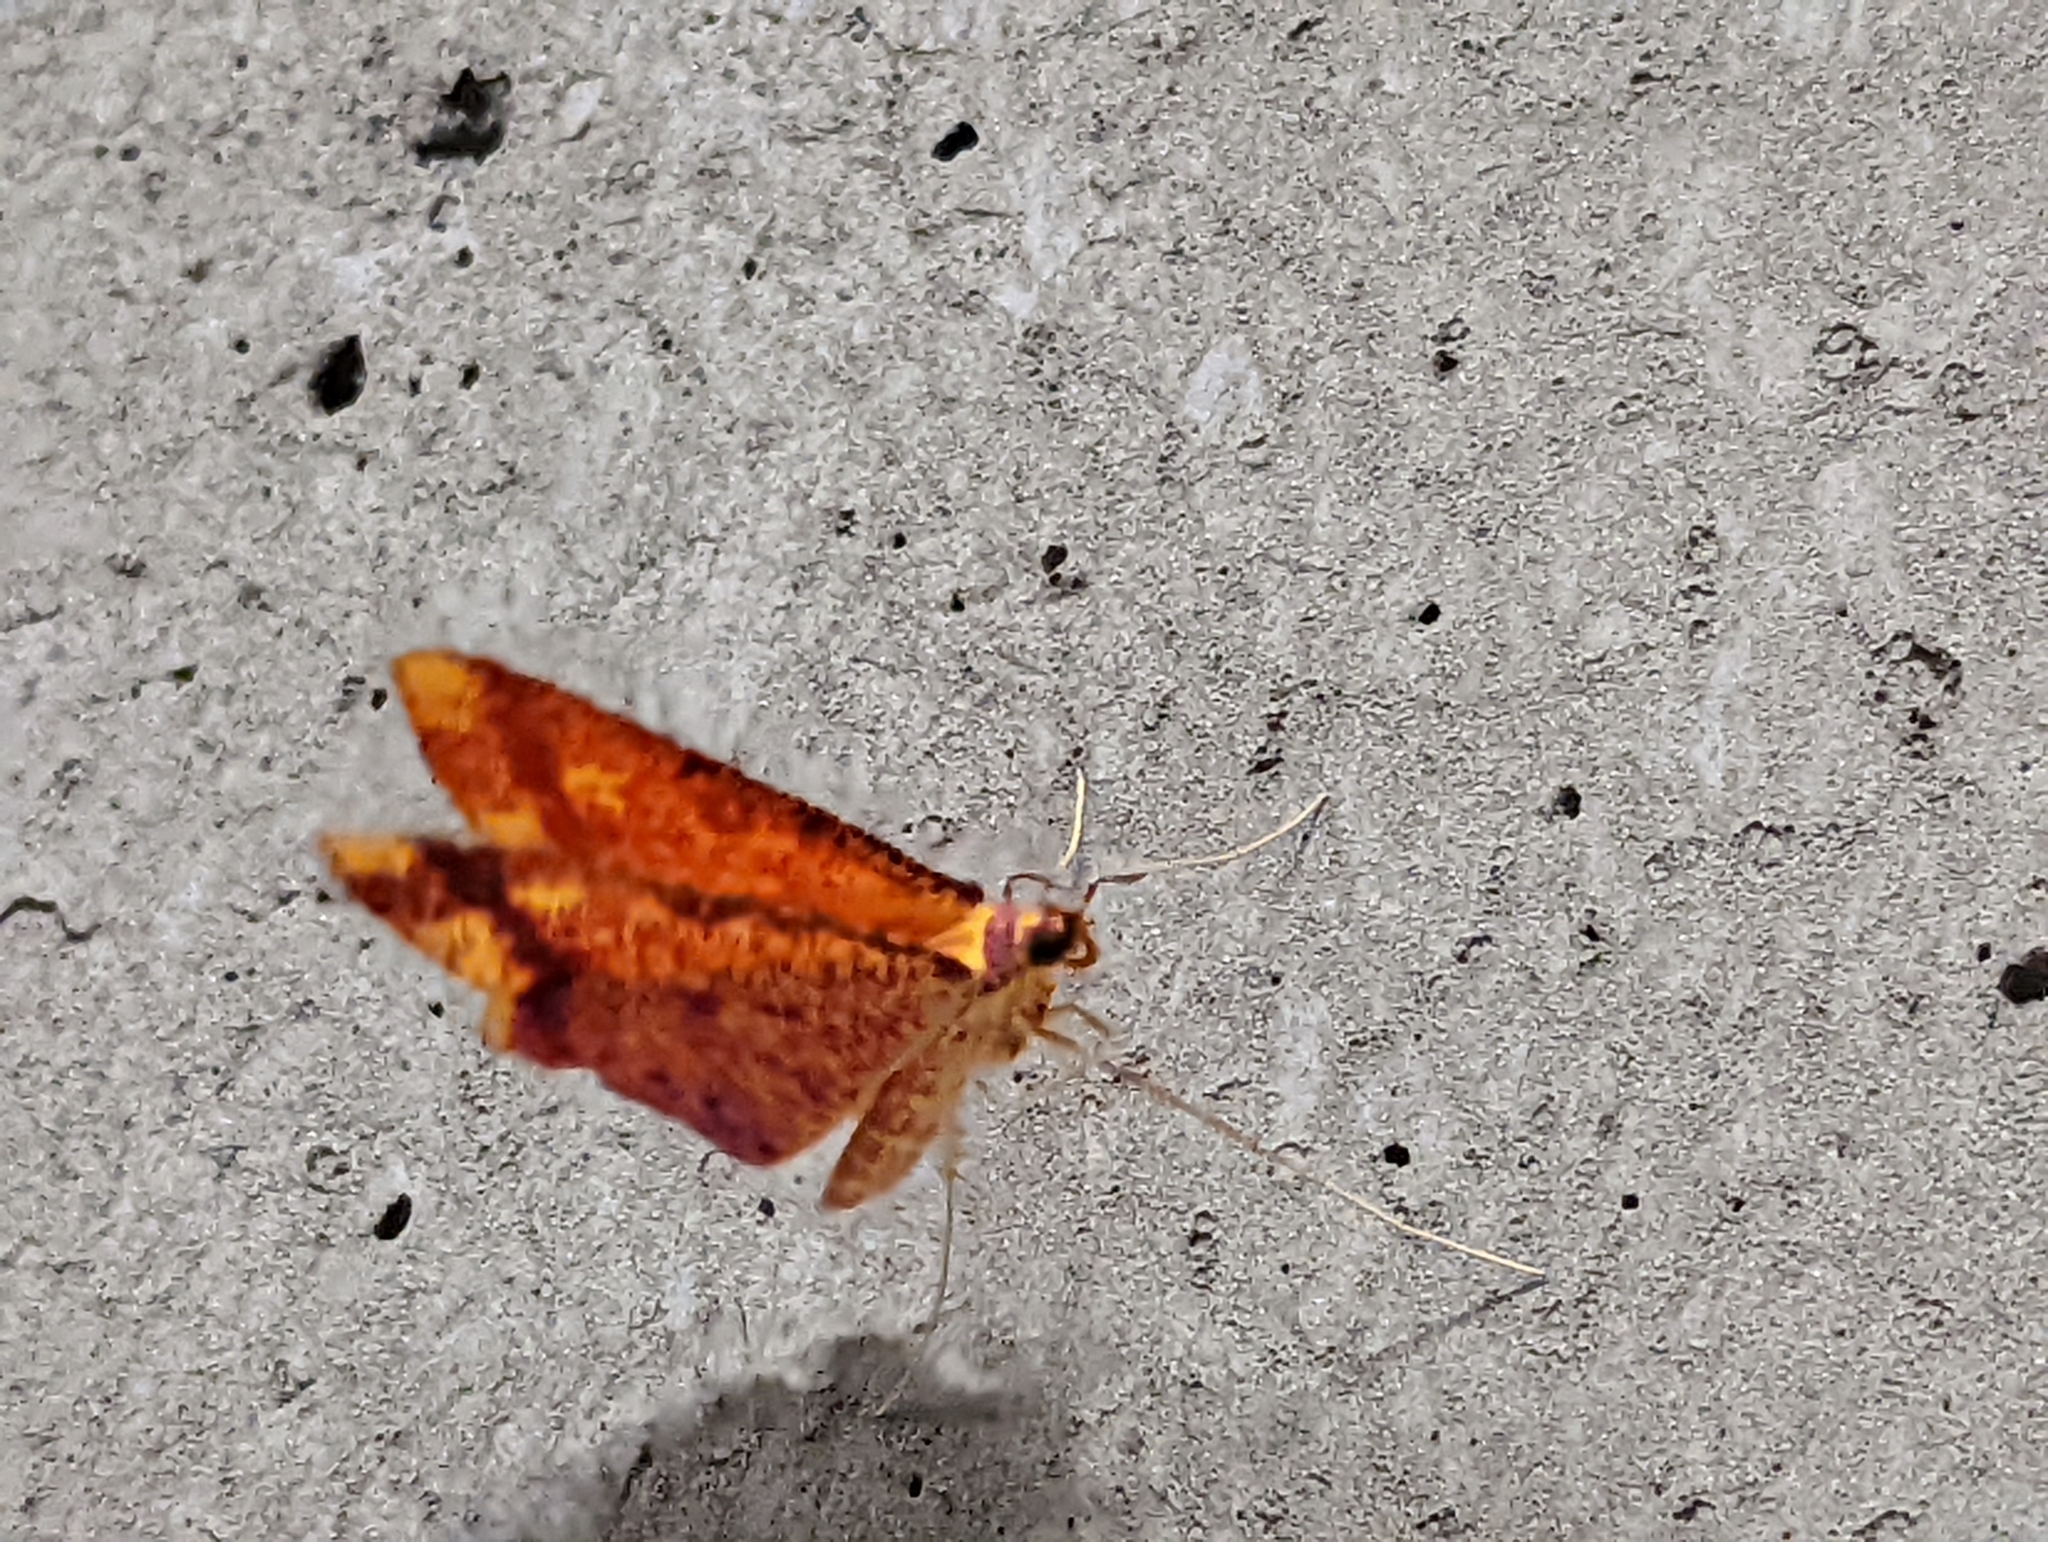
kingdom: Animalia
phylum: Arthropoda
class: Insecta
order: Lepidoptera
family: Geometridae
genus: Eumelea
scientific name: Eumelea ludovicata
